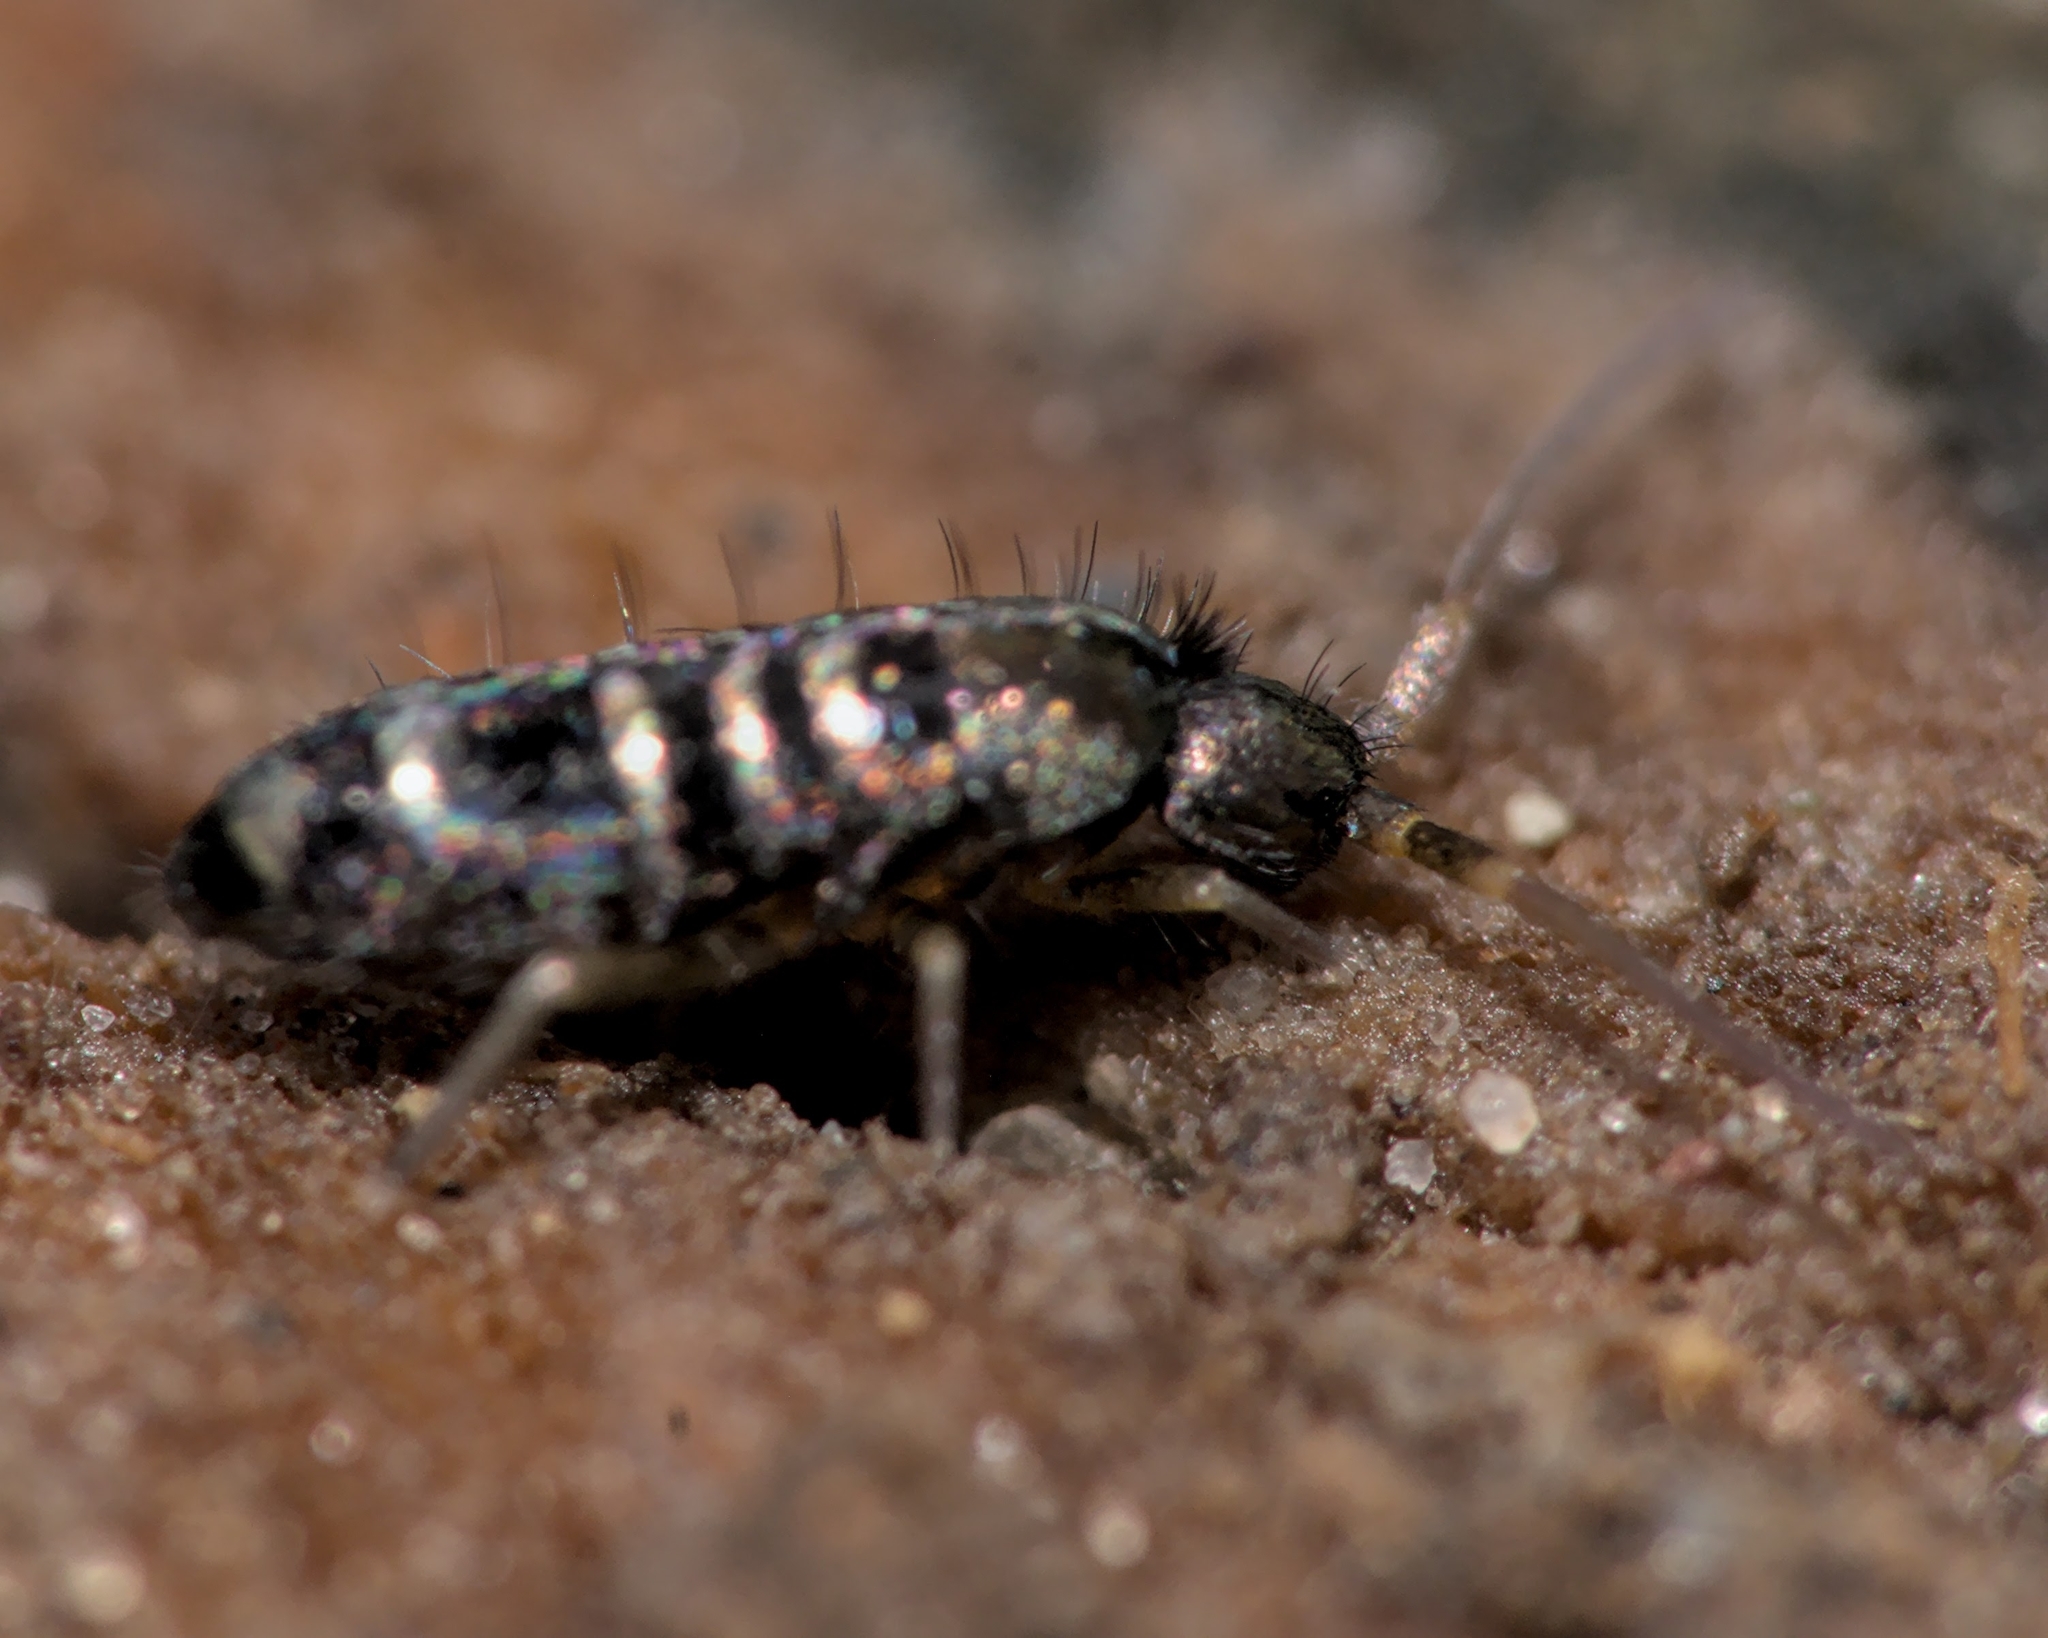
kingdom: Animalia
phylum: Arthropoda
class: Collembola
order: Entomobryomorpha
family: Tomoceridae
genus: Tomocerus
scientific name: Tomocerus vulgaris
